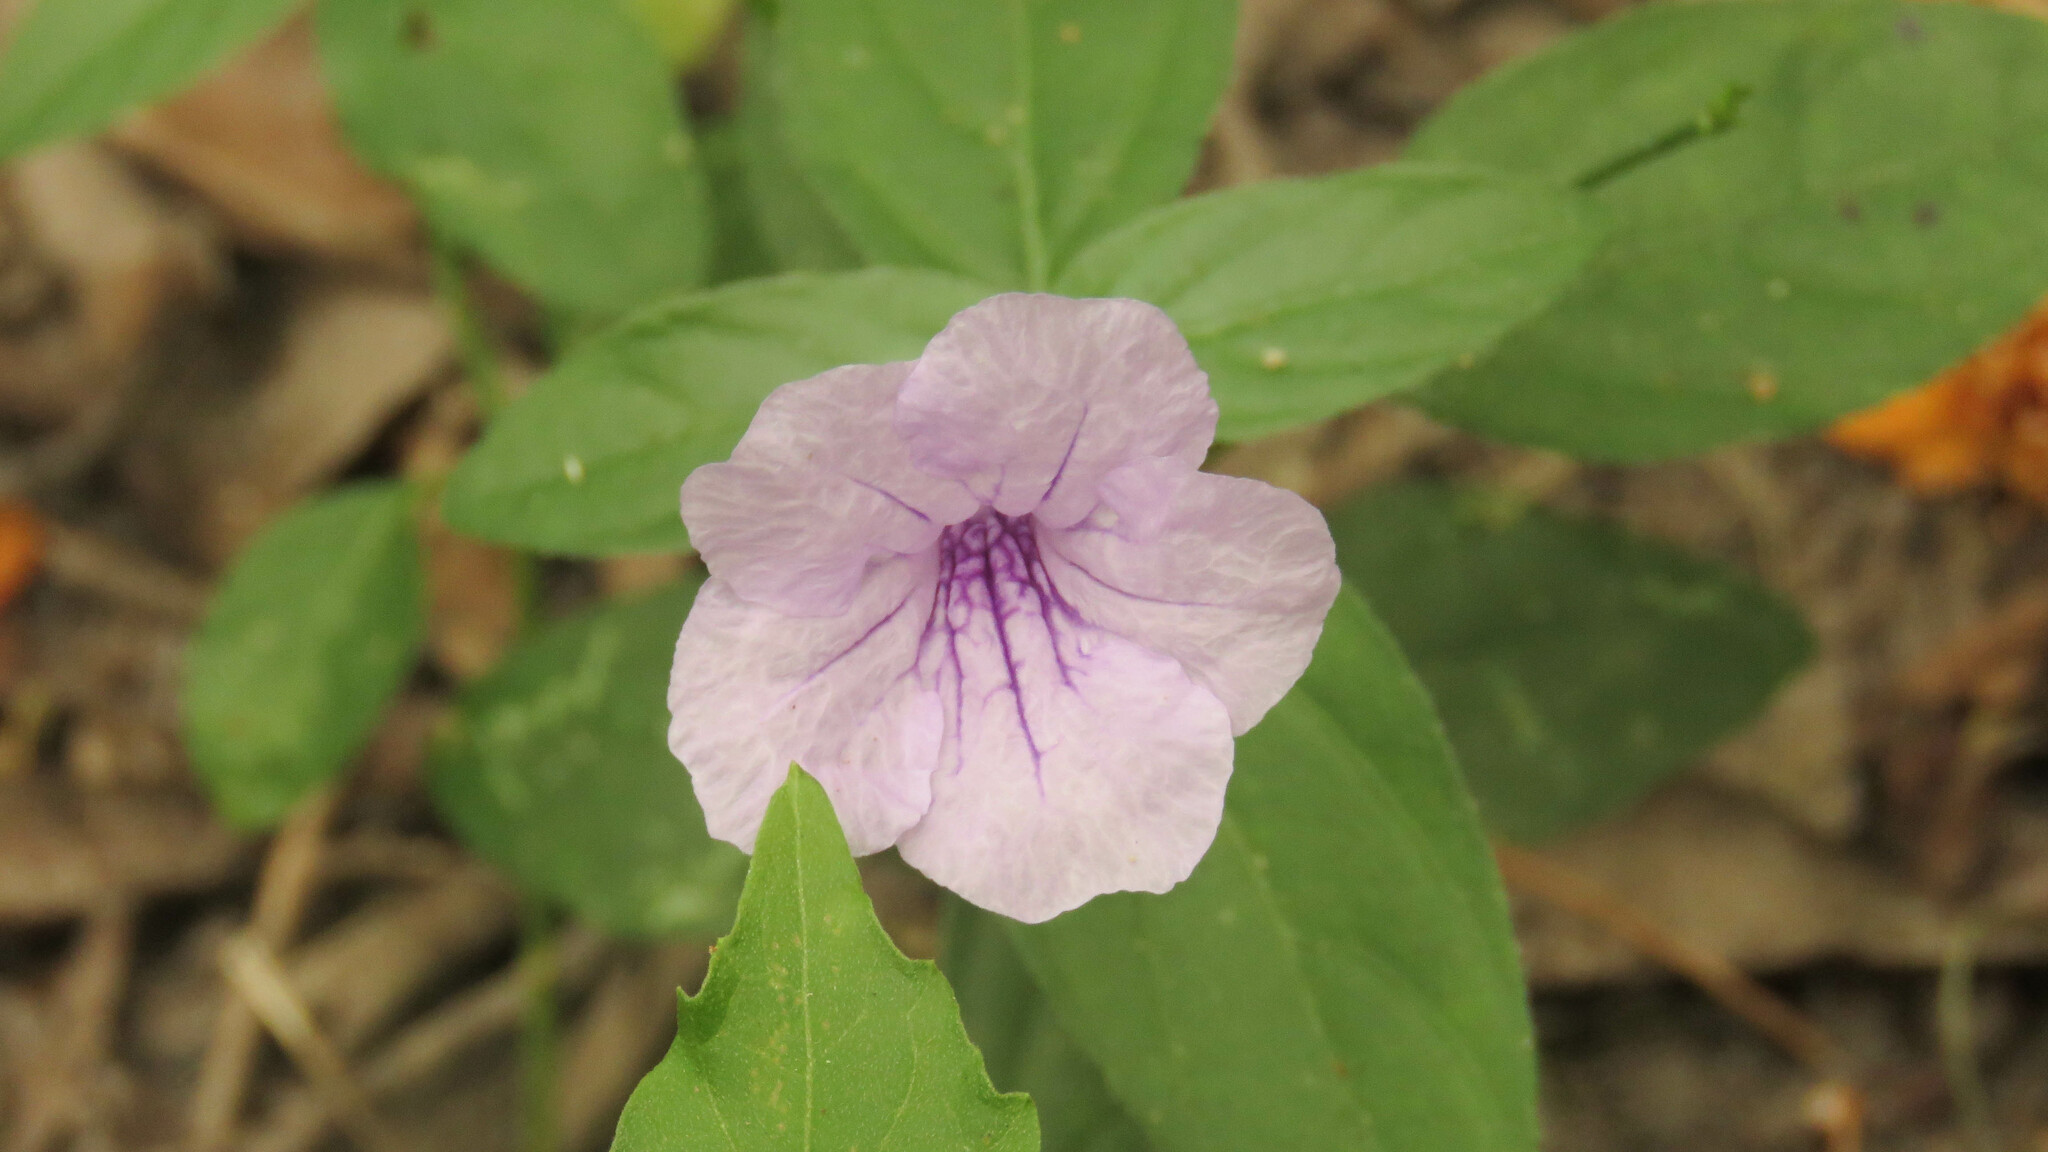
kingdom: Plantae
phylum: Tracheophyta
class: Magnoliopsida
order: Lamiales
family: Acanthaceae
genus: Ruellia
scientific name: Ruellia erythropus
